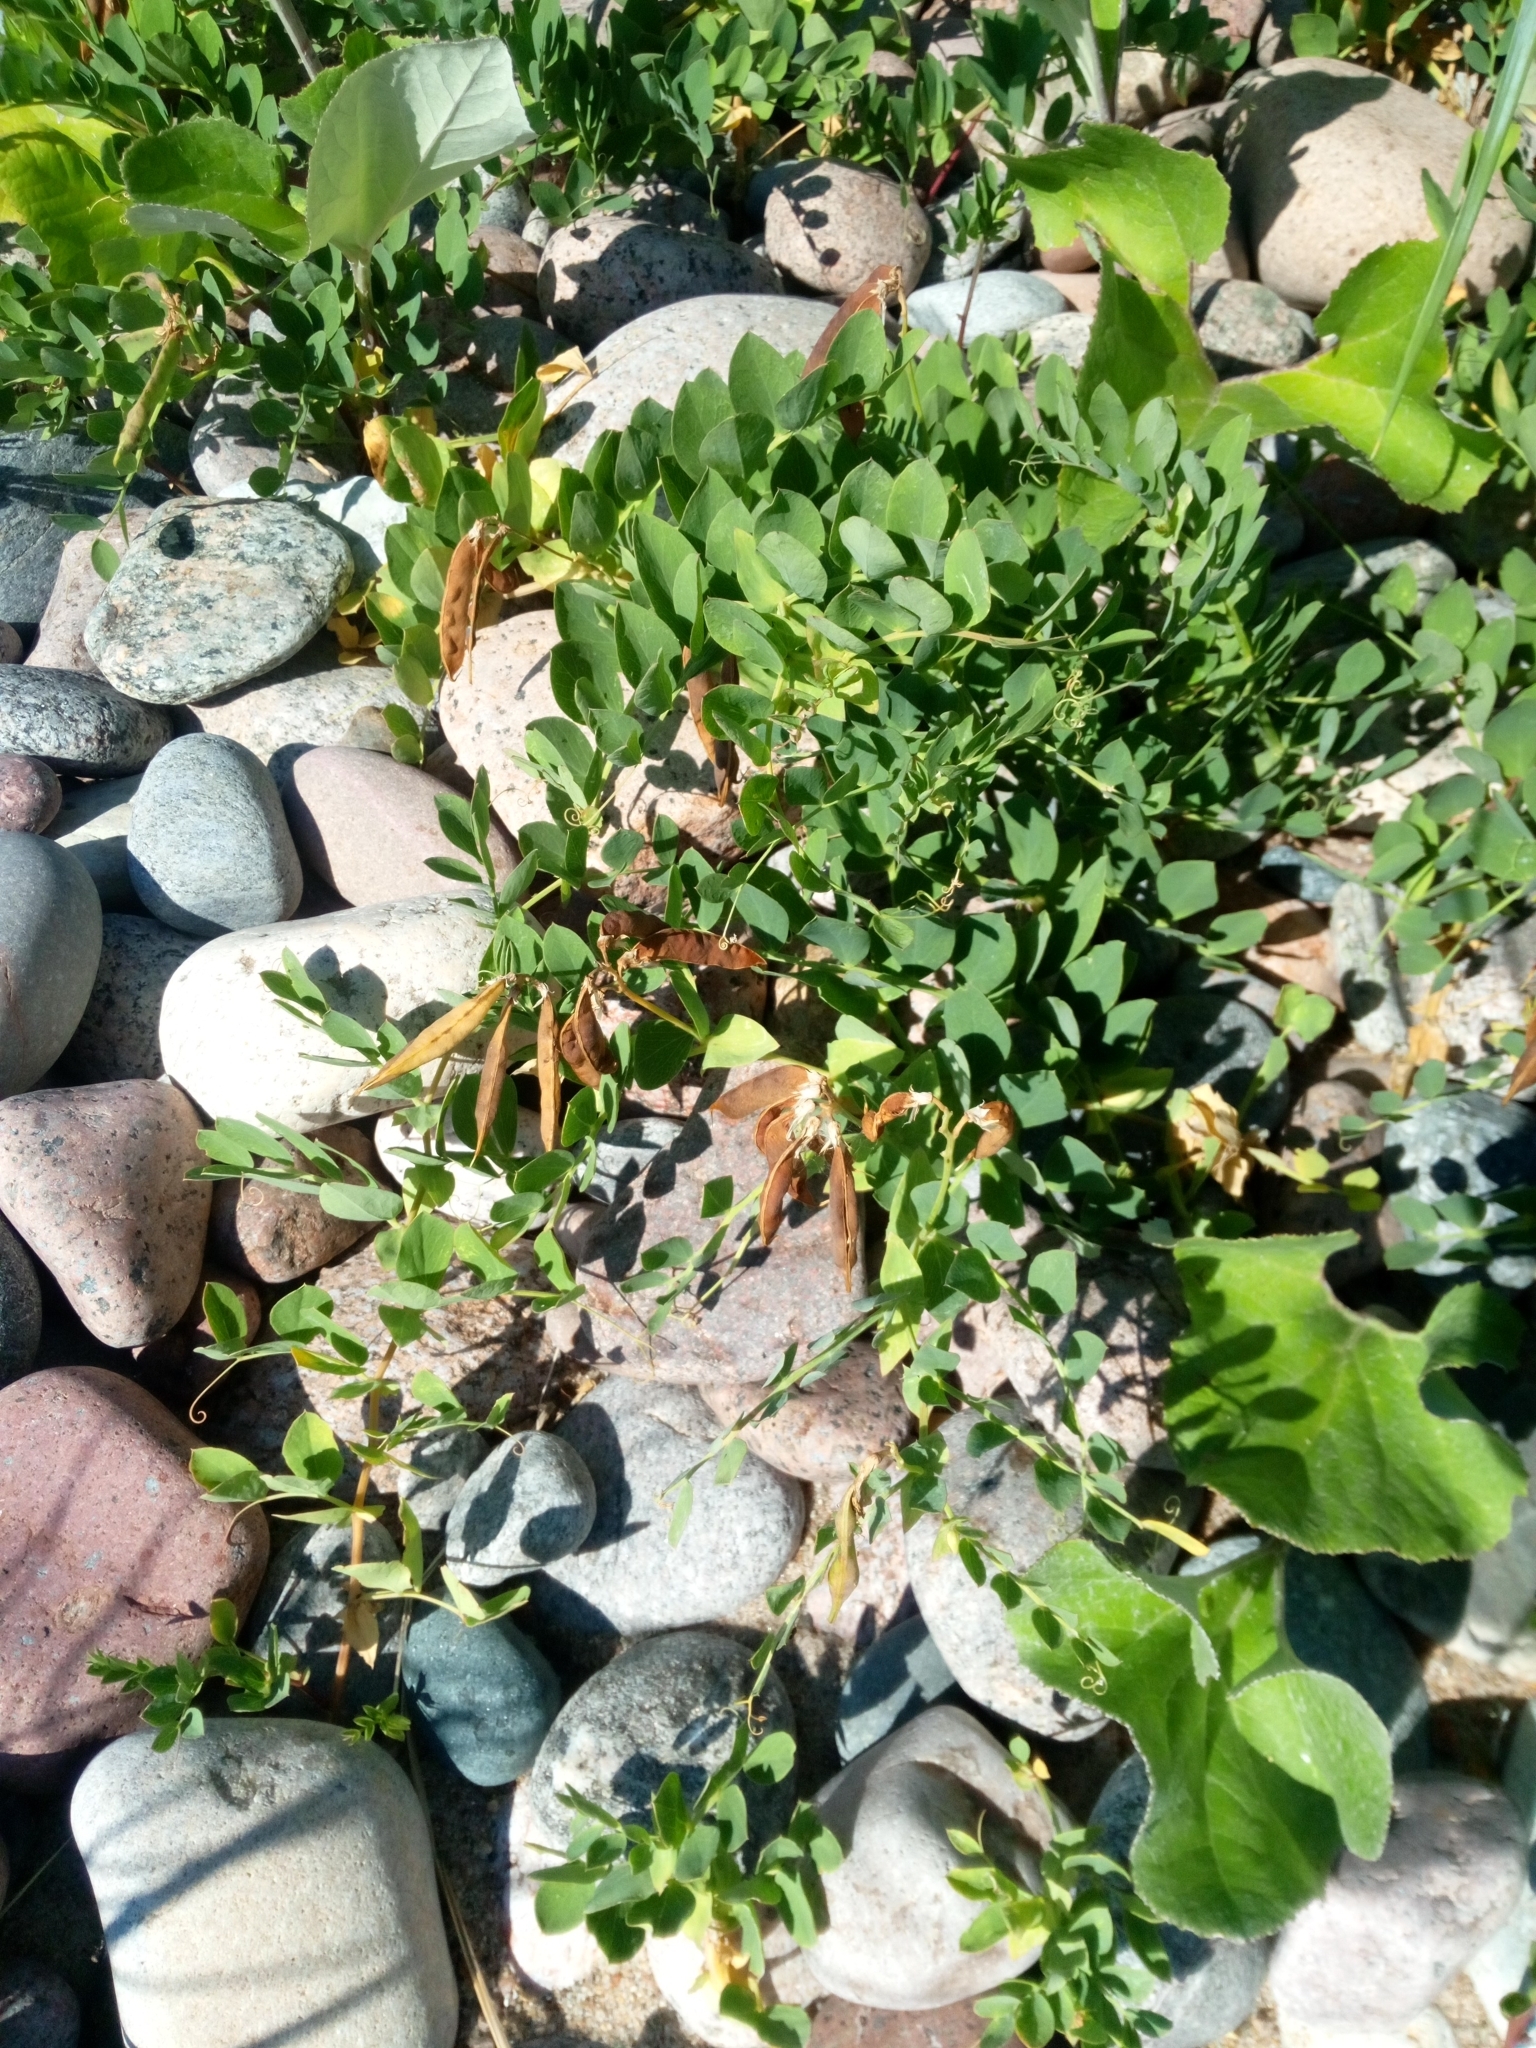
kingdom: Plantae
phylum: Tracheophyta
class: Magnoliopsida
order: Fabales
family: Fabaceae
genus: Lathyrus
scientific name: Lathyrus japonicus
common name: Sea pea
